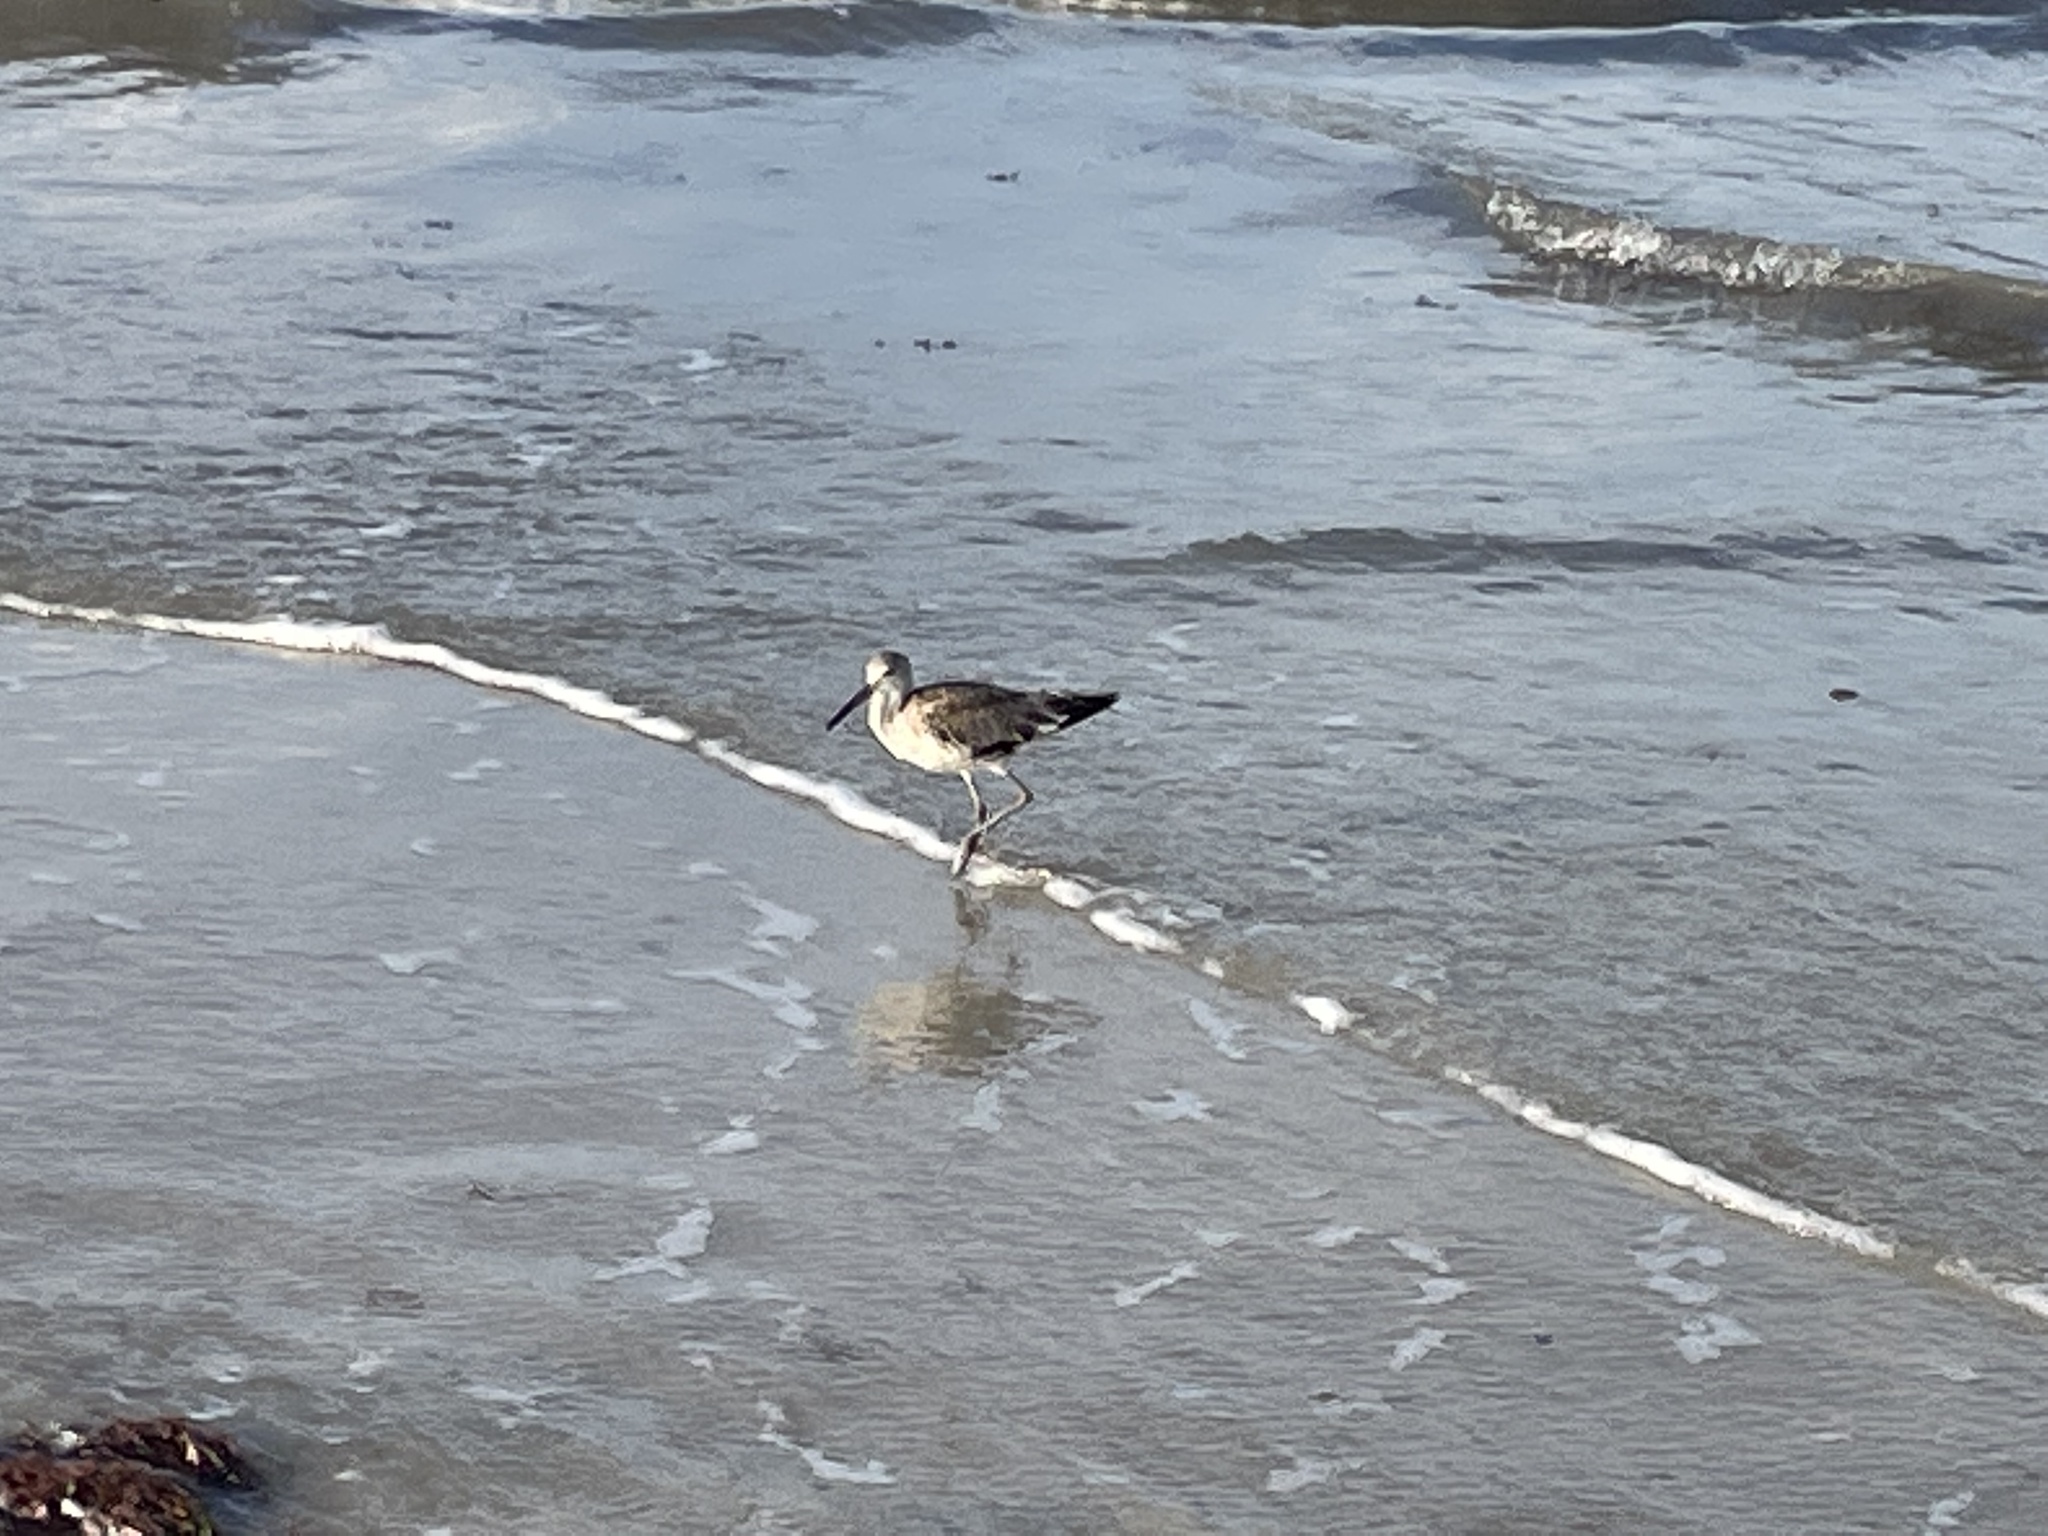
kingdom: Animalia
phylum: Chordata
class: Aves
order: Charadriiformes
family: Scolopacidae
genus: Tringa
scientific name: Tringa semipalmata
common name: Willet
